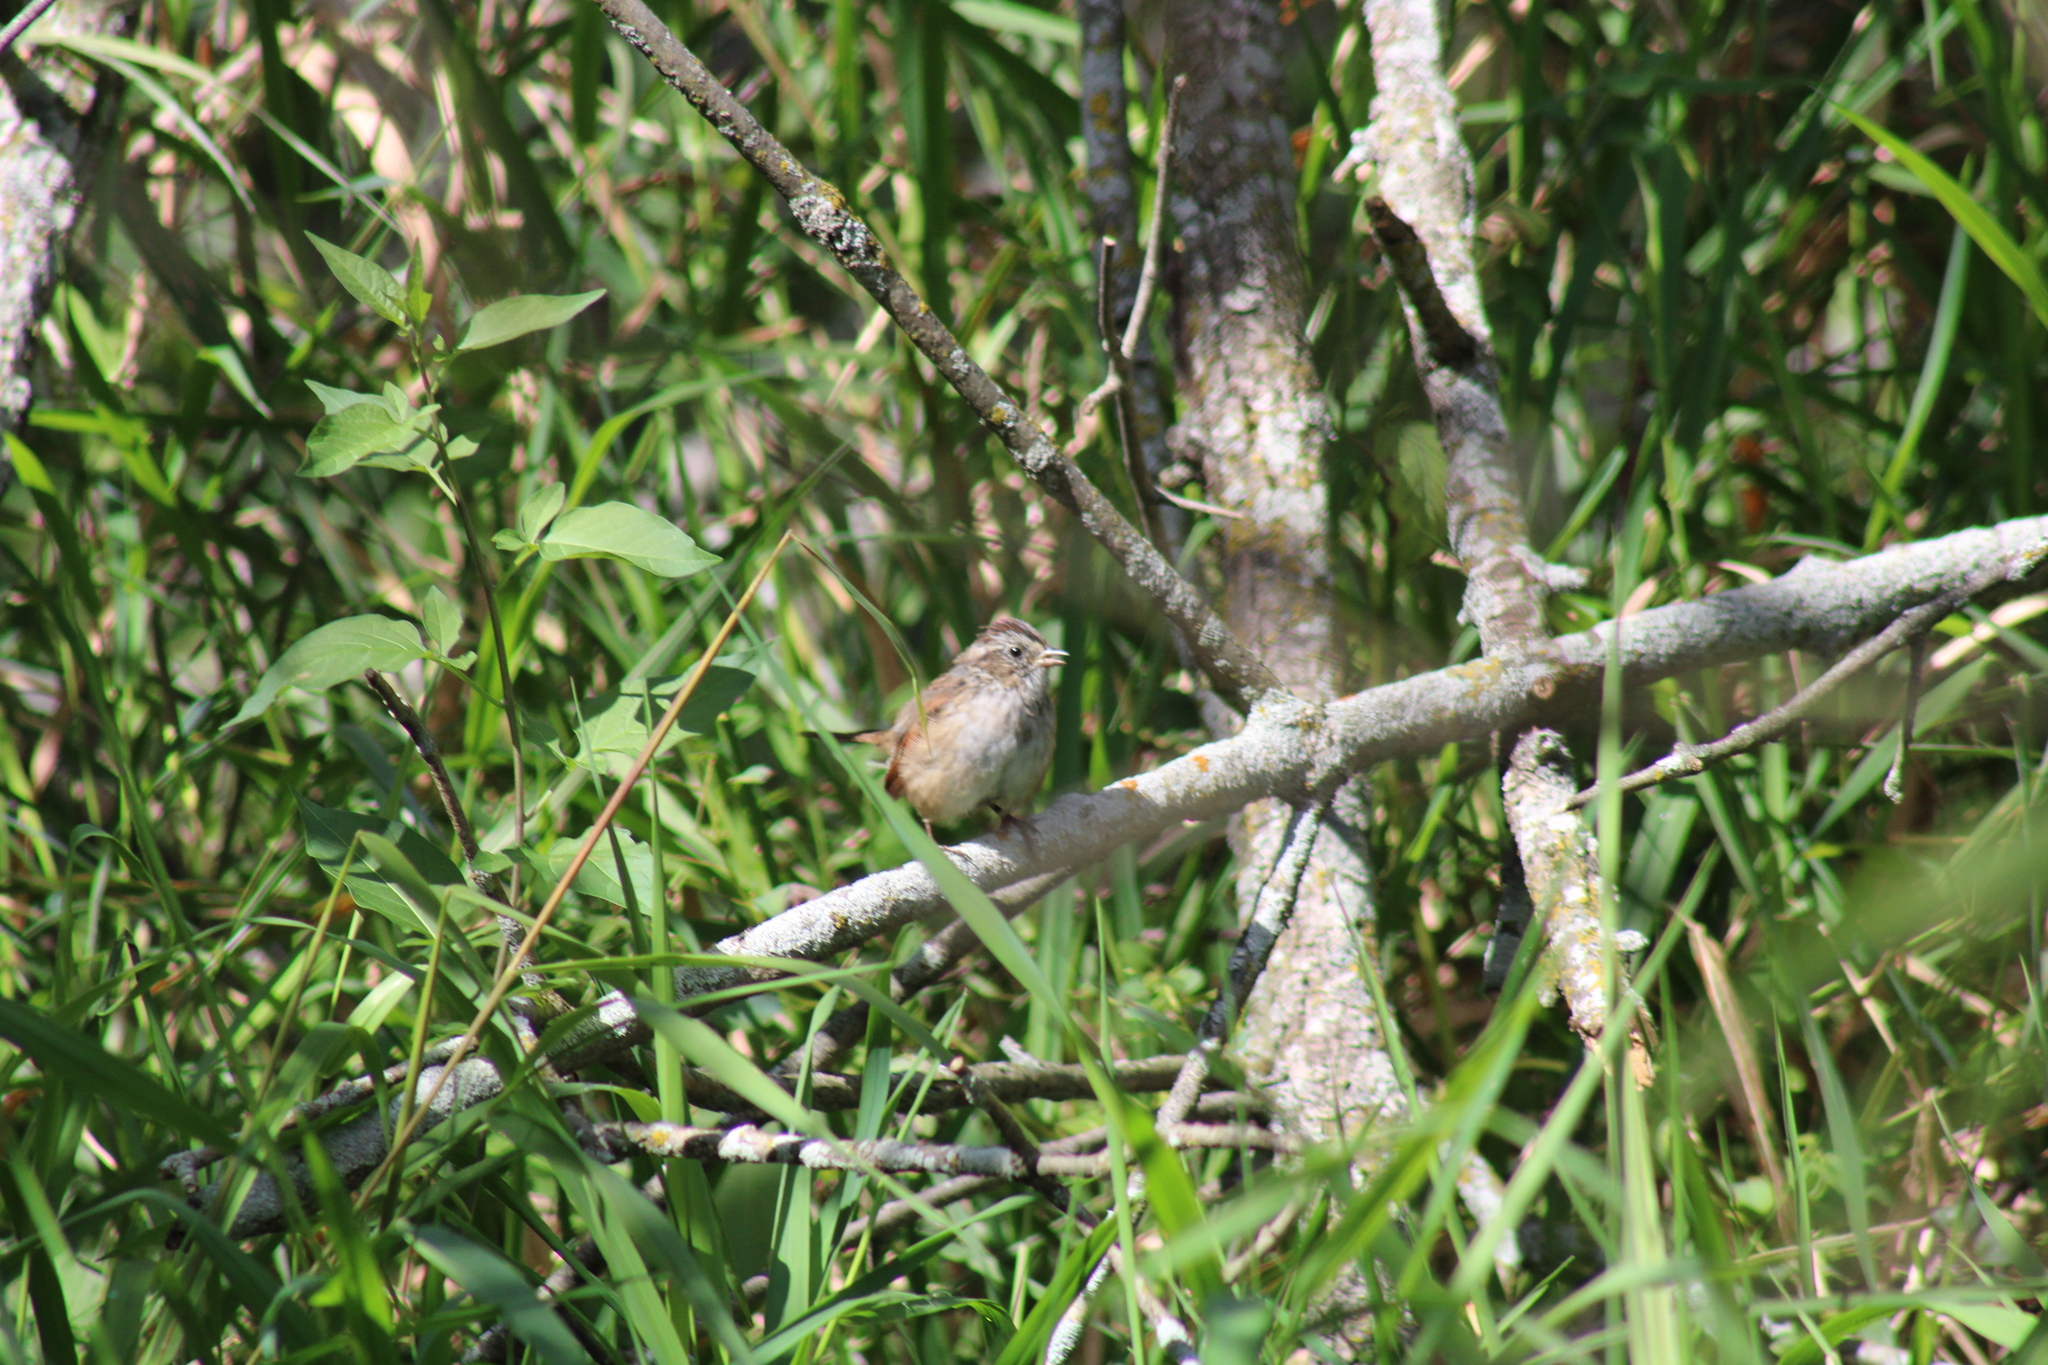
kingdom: Animalia
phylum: Chordata
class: Aves
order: Passeriformes
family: Passerellidae
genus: Melospiza
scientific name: Melospiza georgiana
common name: Swamp sparrow
